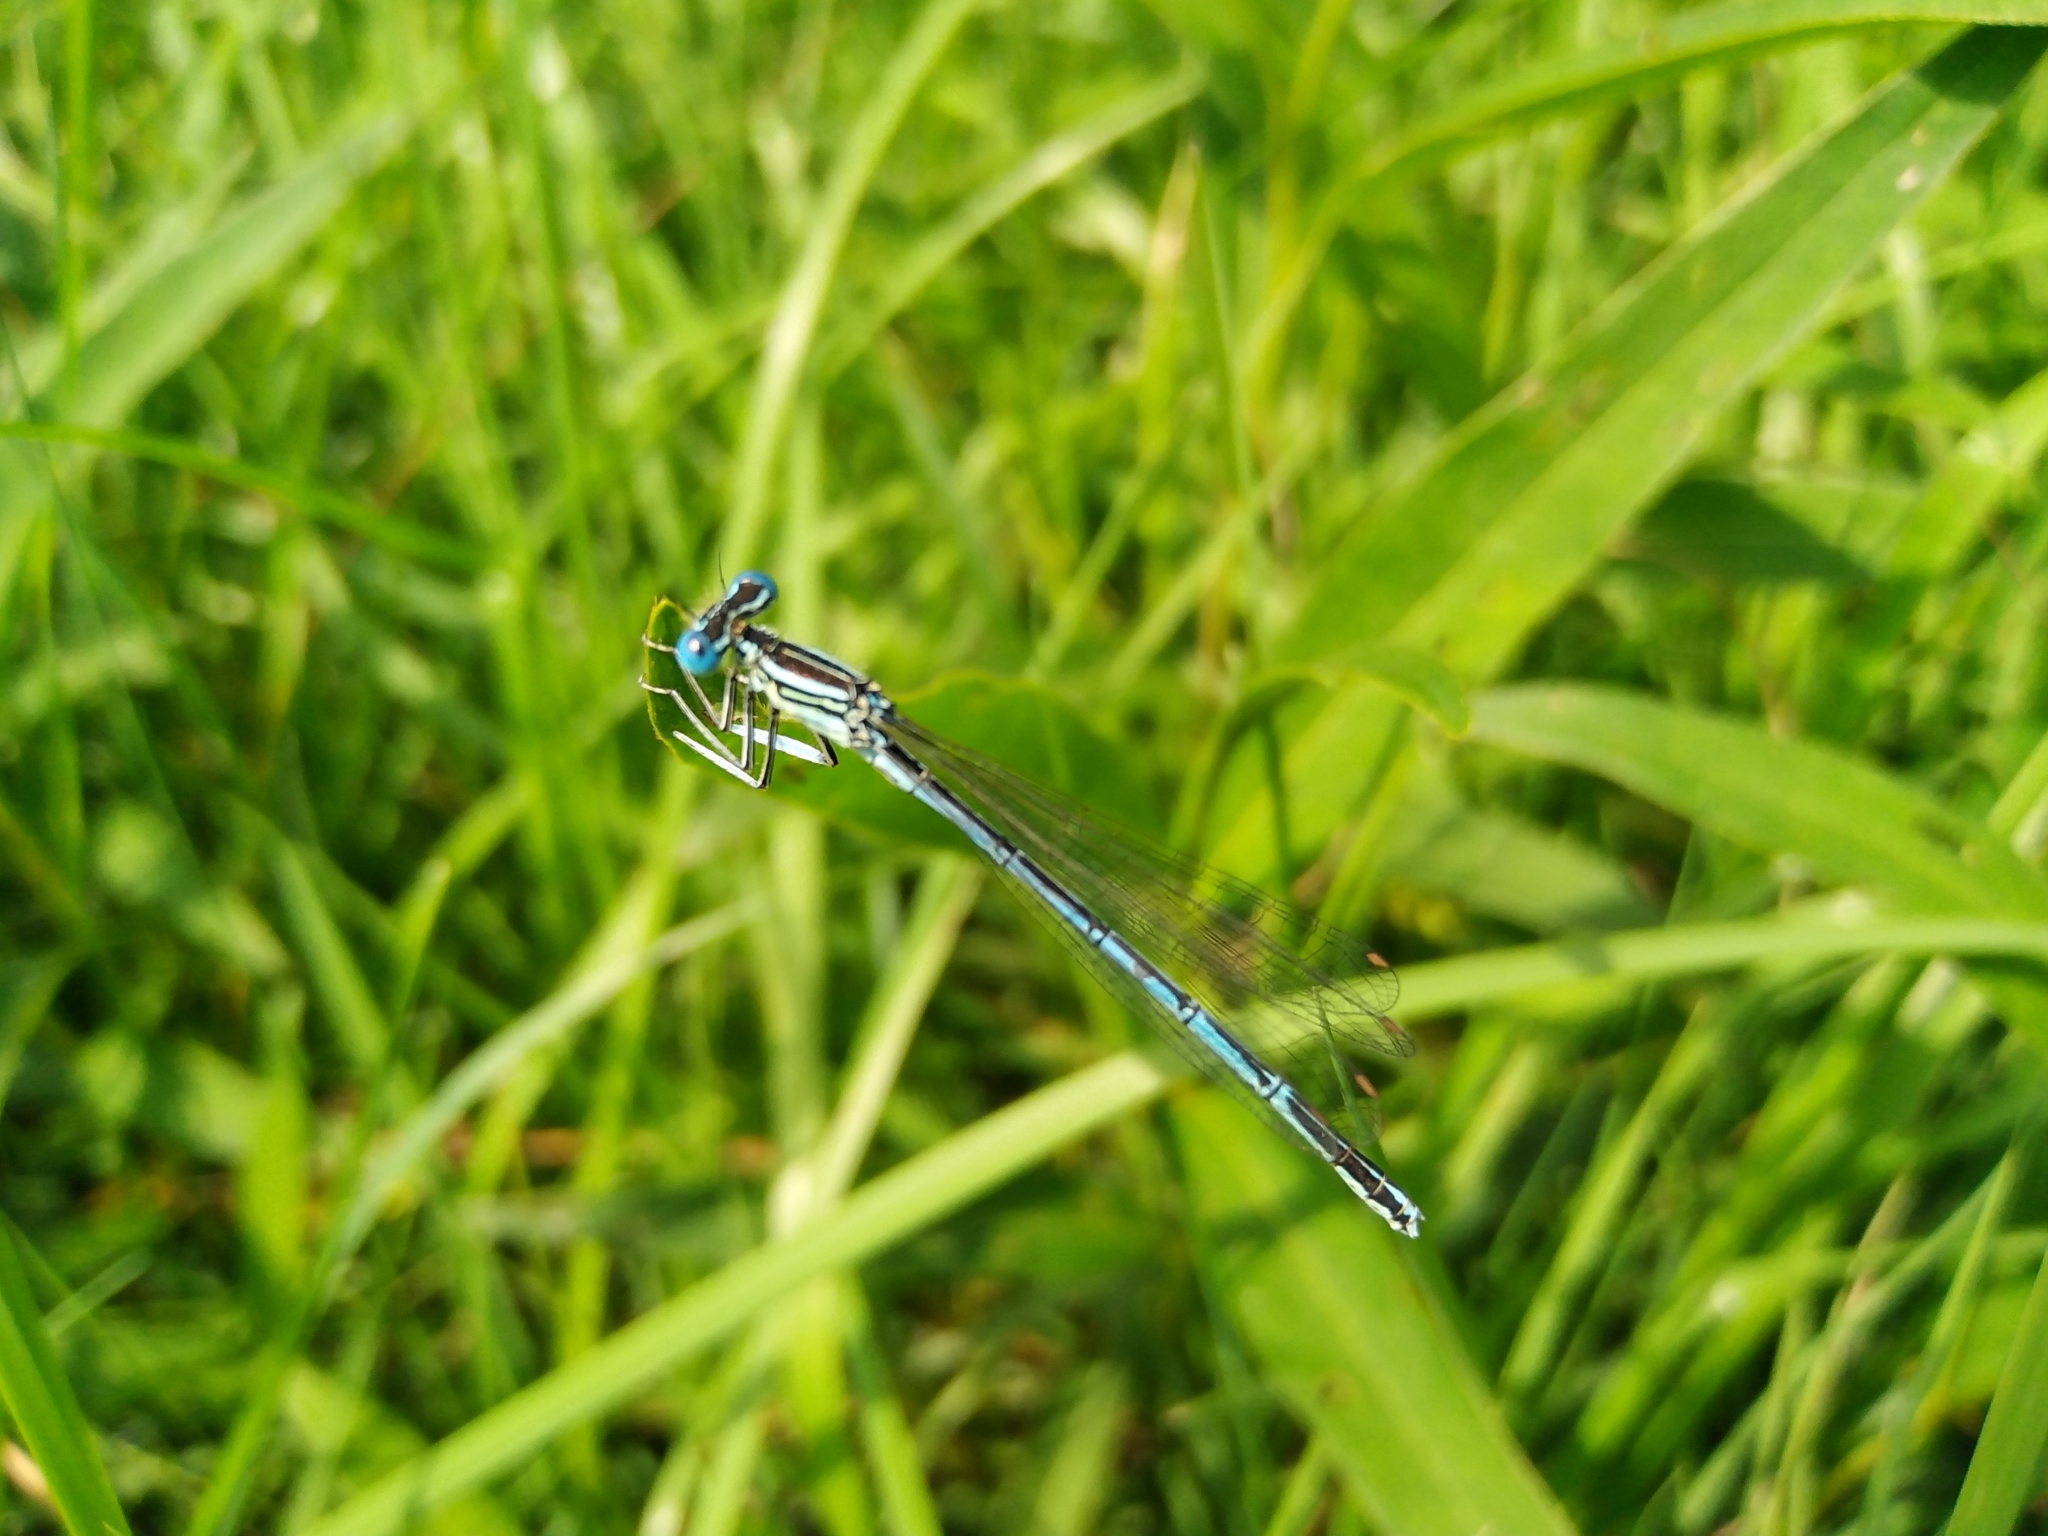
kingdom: Animalia
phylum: Arthropoda
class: Insecta
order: Odonata
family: Platycnemididae
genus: Platycnemis
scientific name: Platycnemis pennipes
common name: White-legged damselfly
